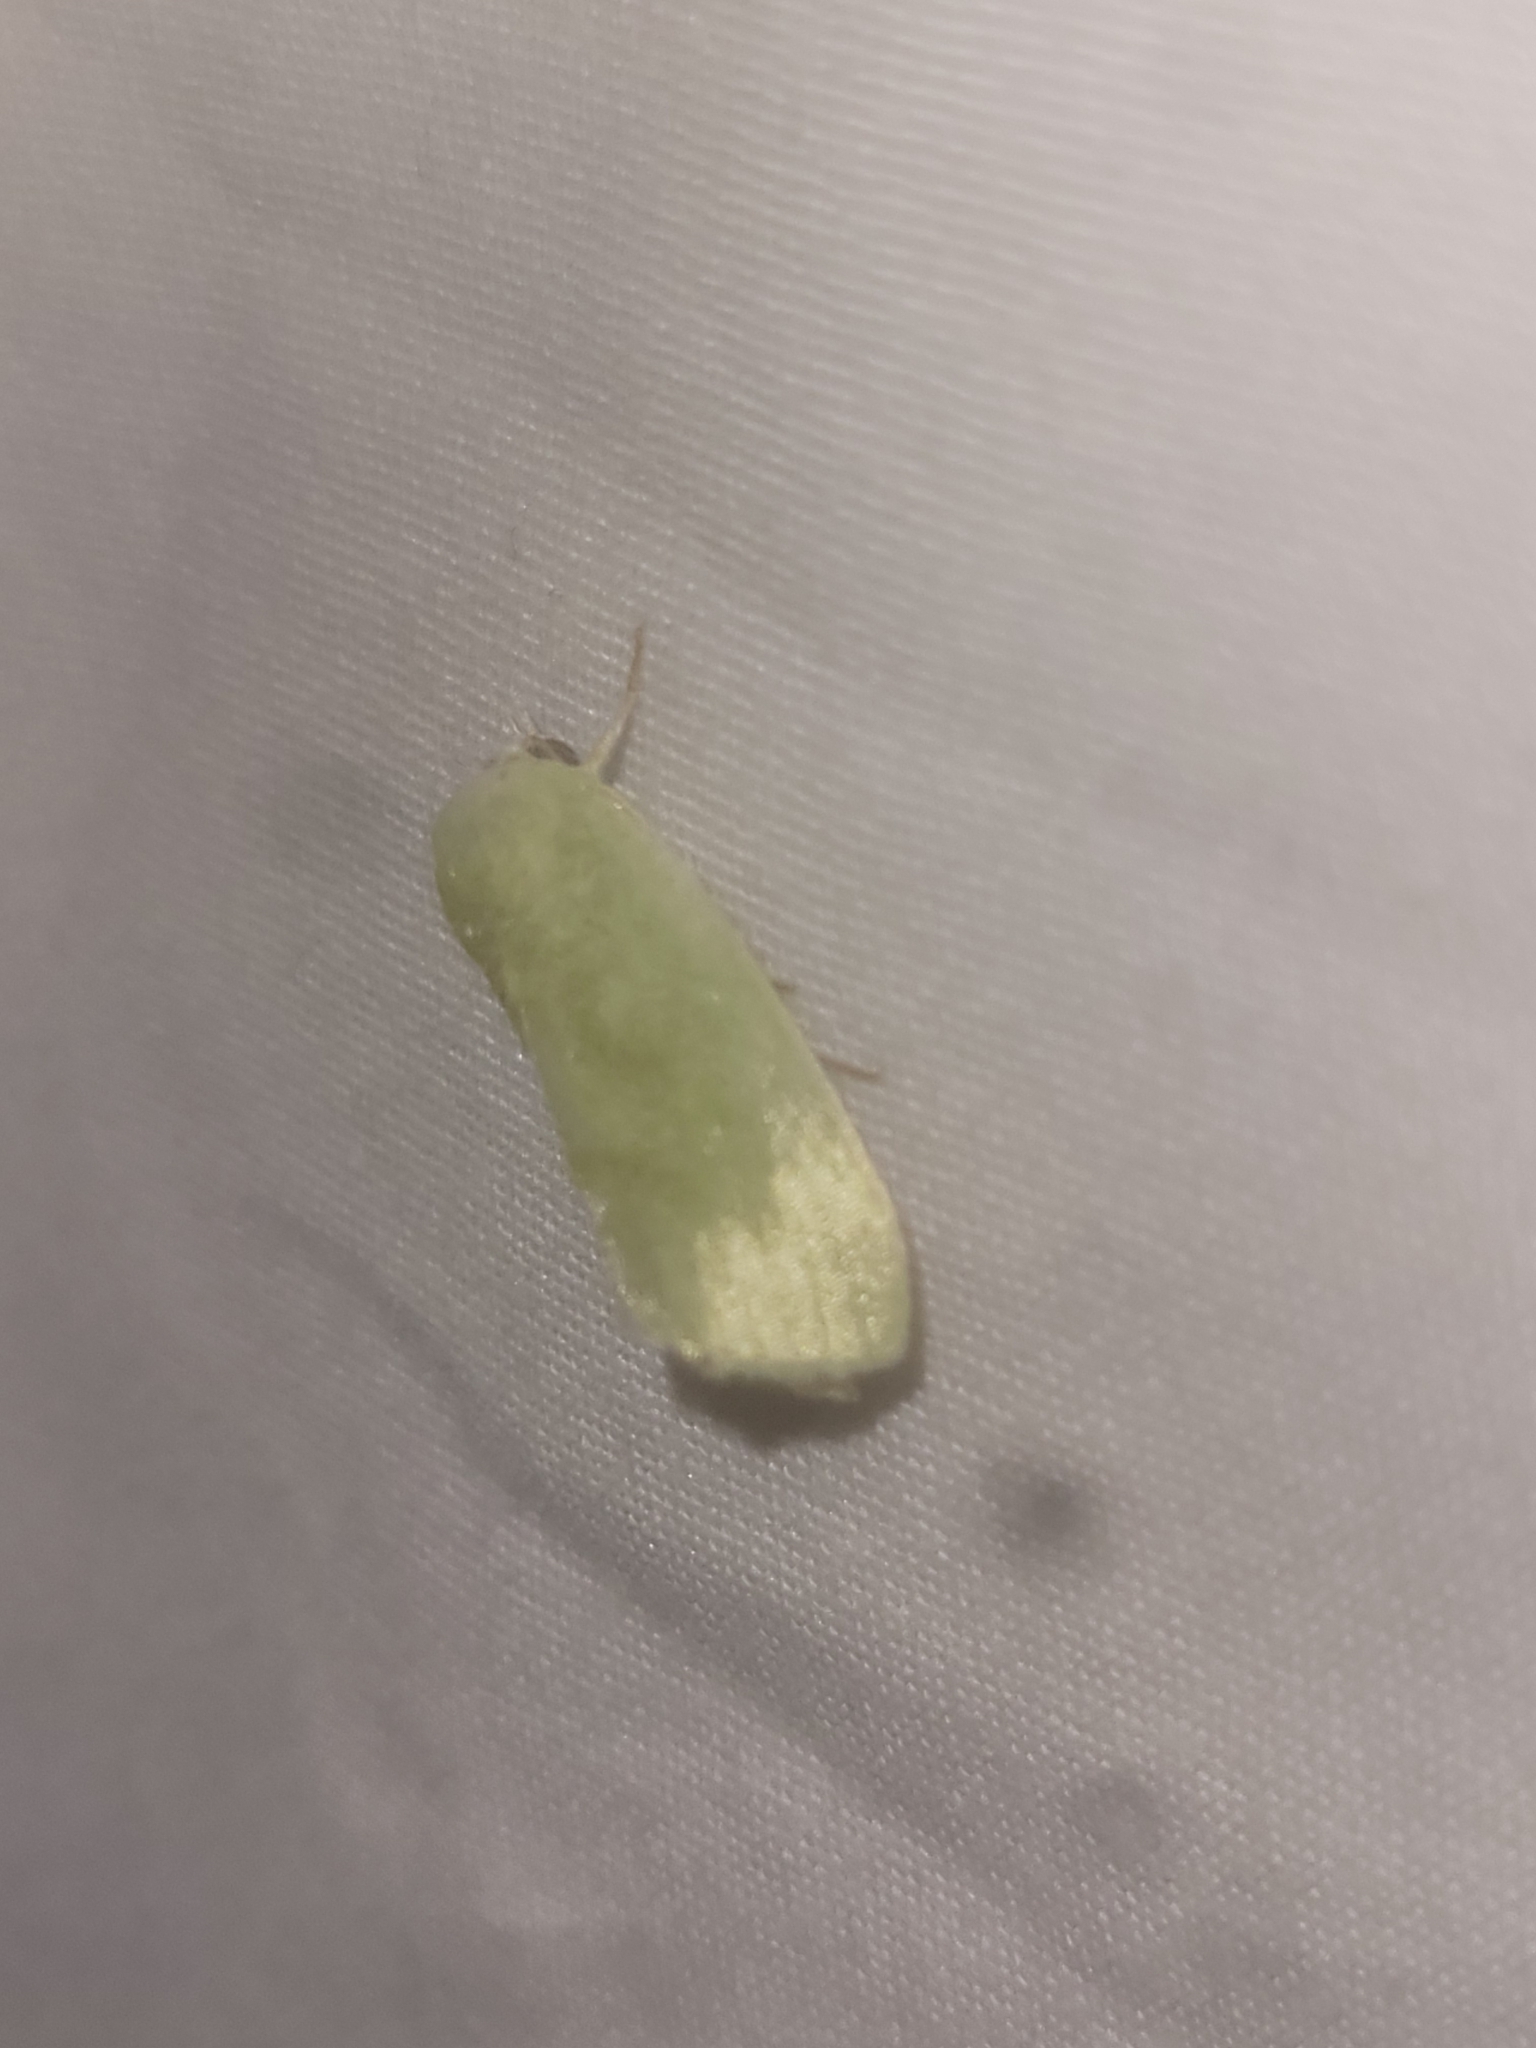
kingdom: Animalia
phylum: Arthropoda
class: Insecta
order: Lepidoptera
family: Nolidae
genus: Earias
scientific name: Earias insulana
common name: Egyptian bollworm
